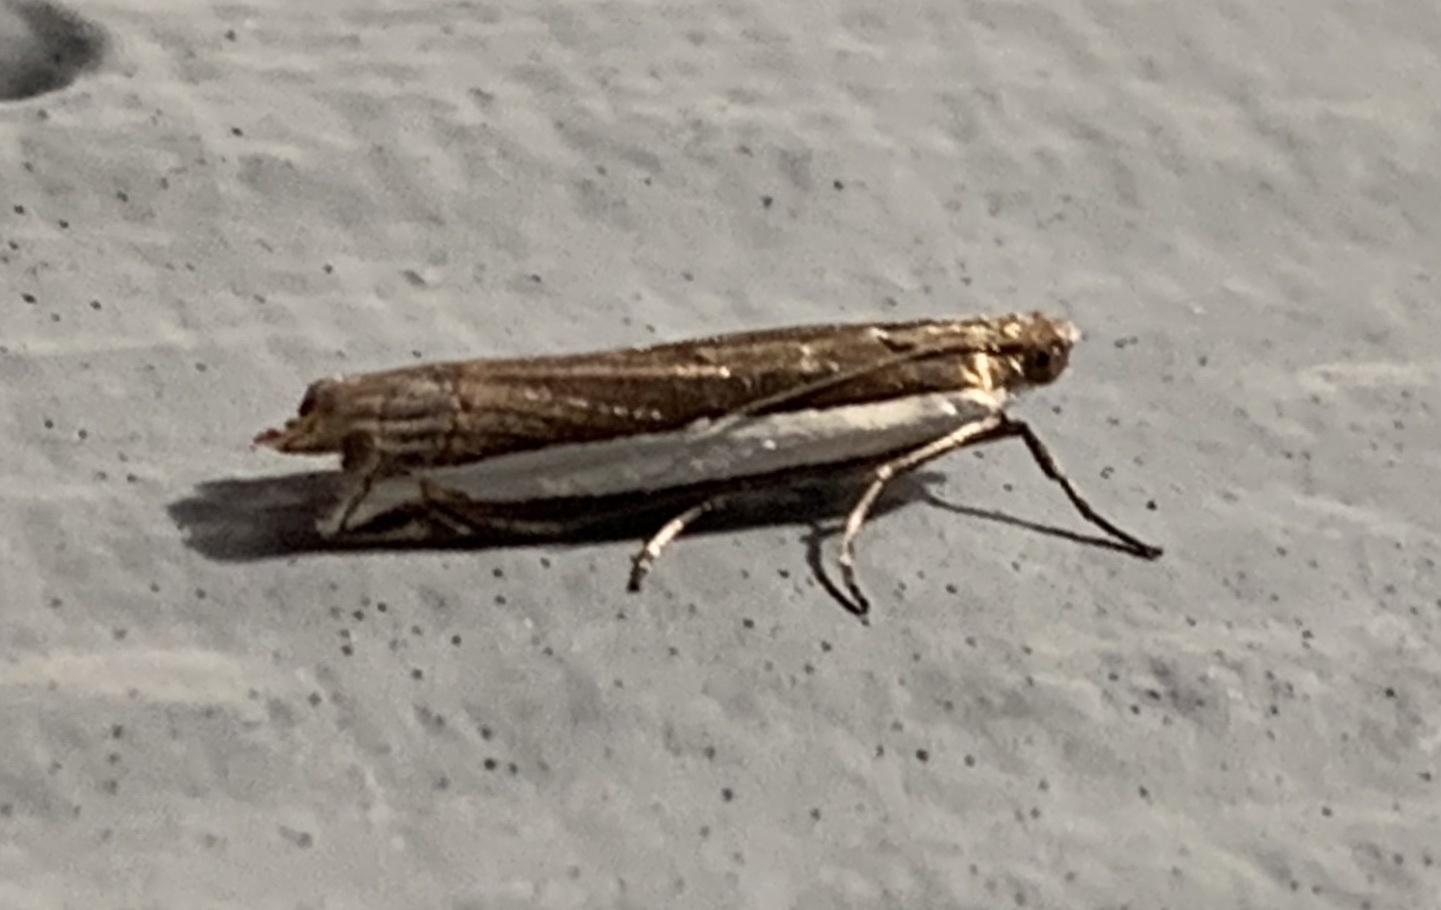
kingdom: Animalia
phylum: Arthropoda
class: Insecta
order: Lepidoptera
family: Crambidae
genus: Crambus
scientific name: Crambus quinquareatus
